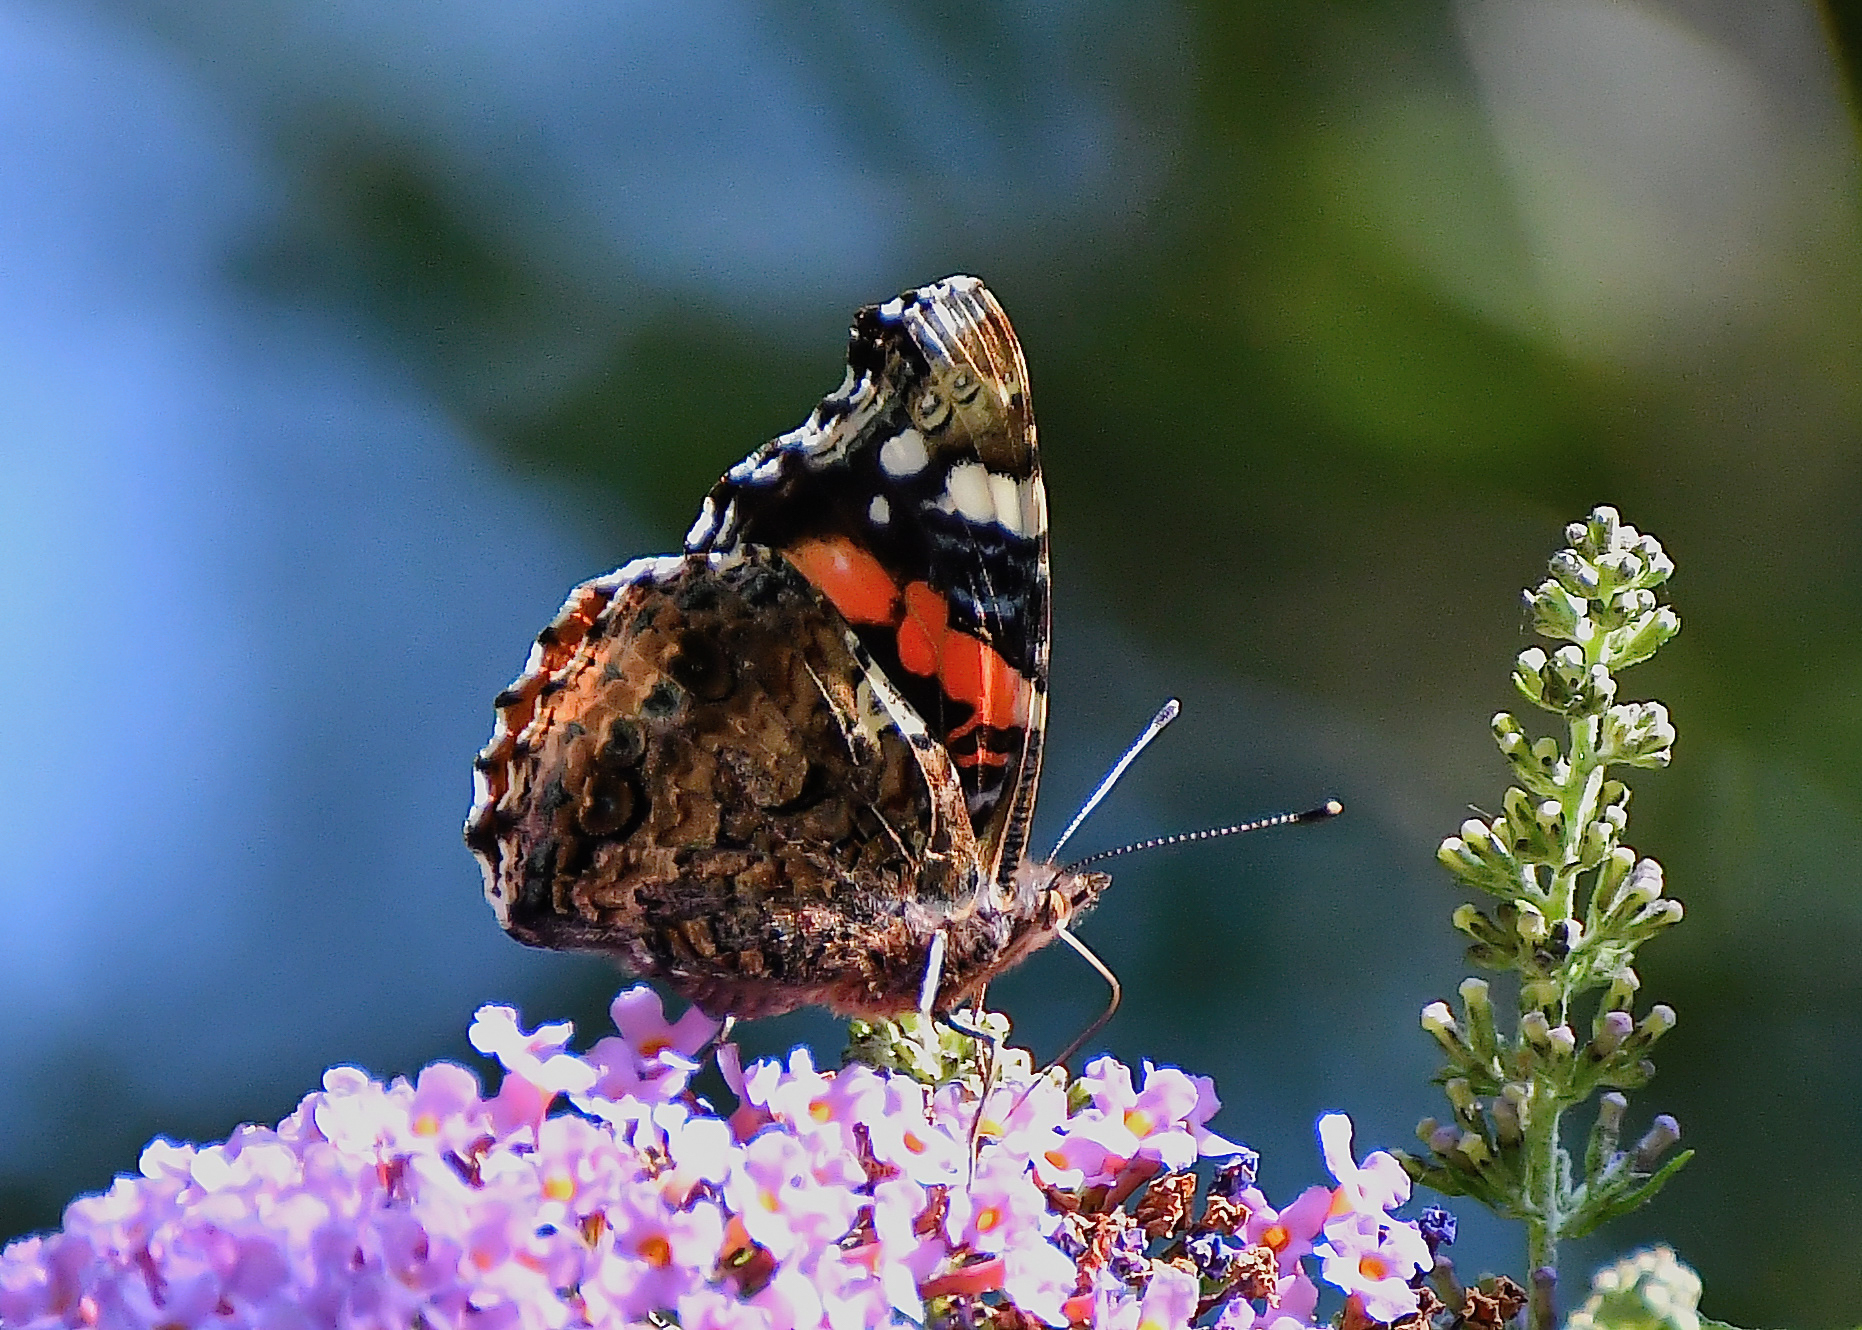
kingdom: Animalia
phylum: Arthropoda
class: Insecta
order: Lepidoptera
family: Nymphalidae
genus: Vanessa
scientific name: Vanessa atalanta
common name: Red admiral
